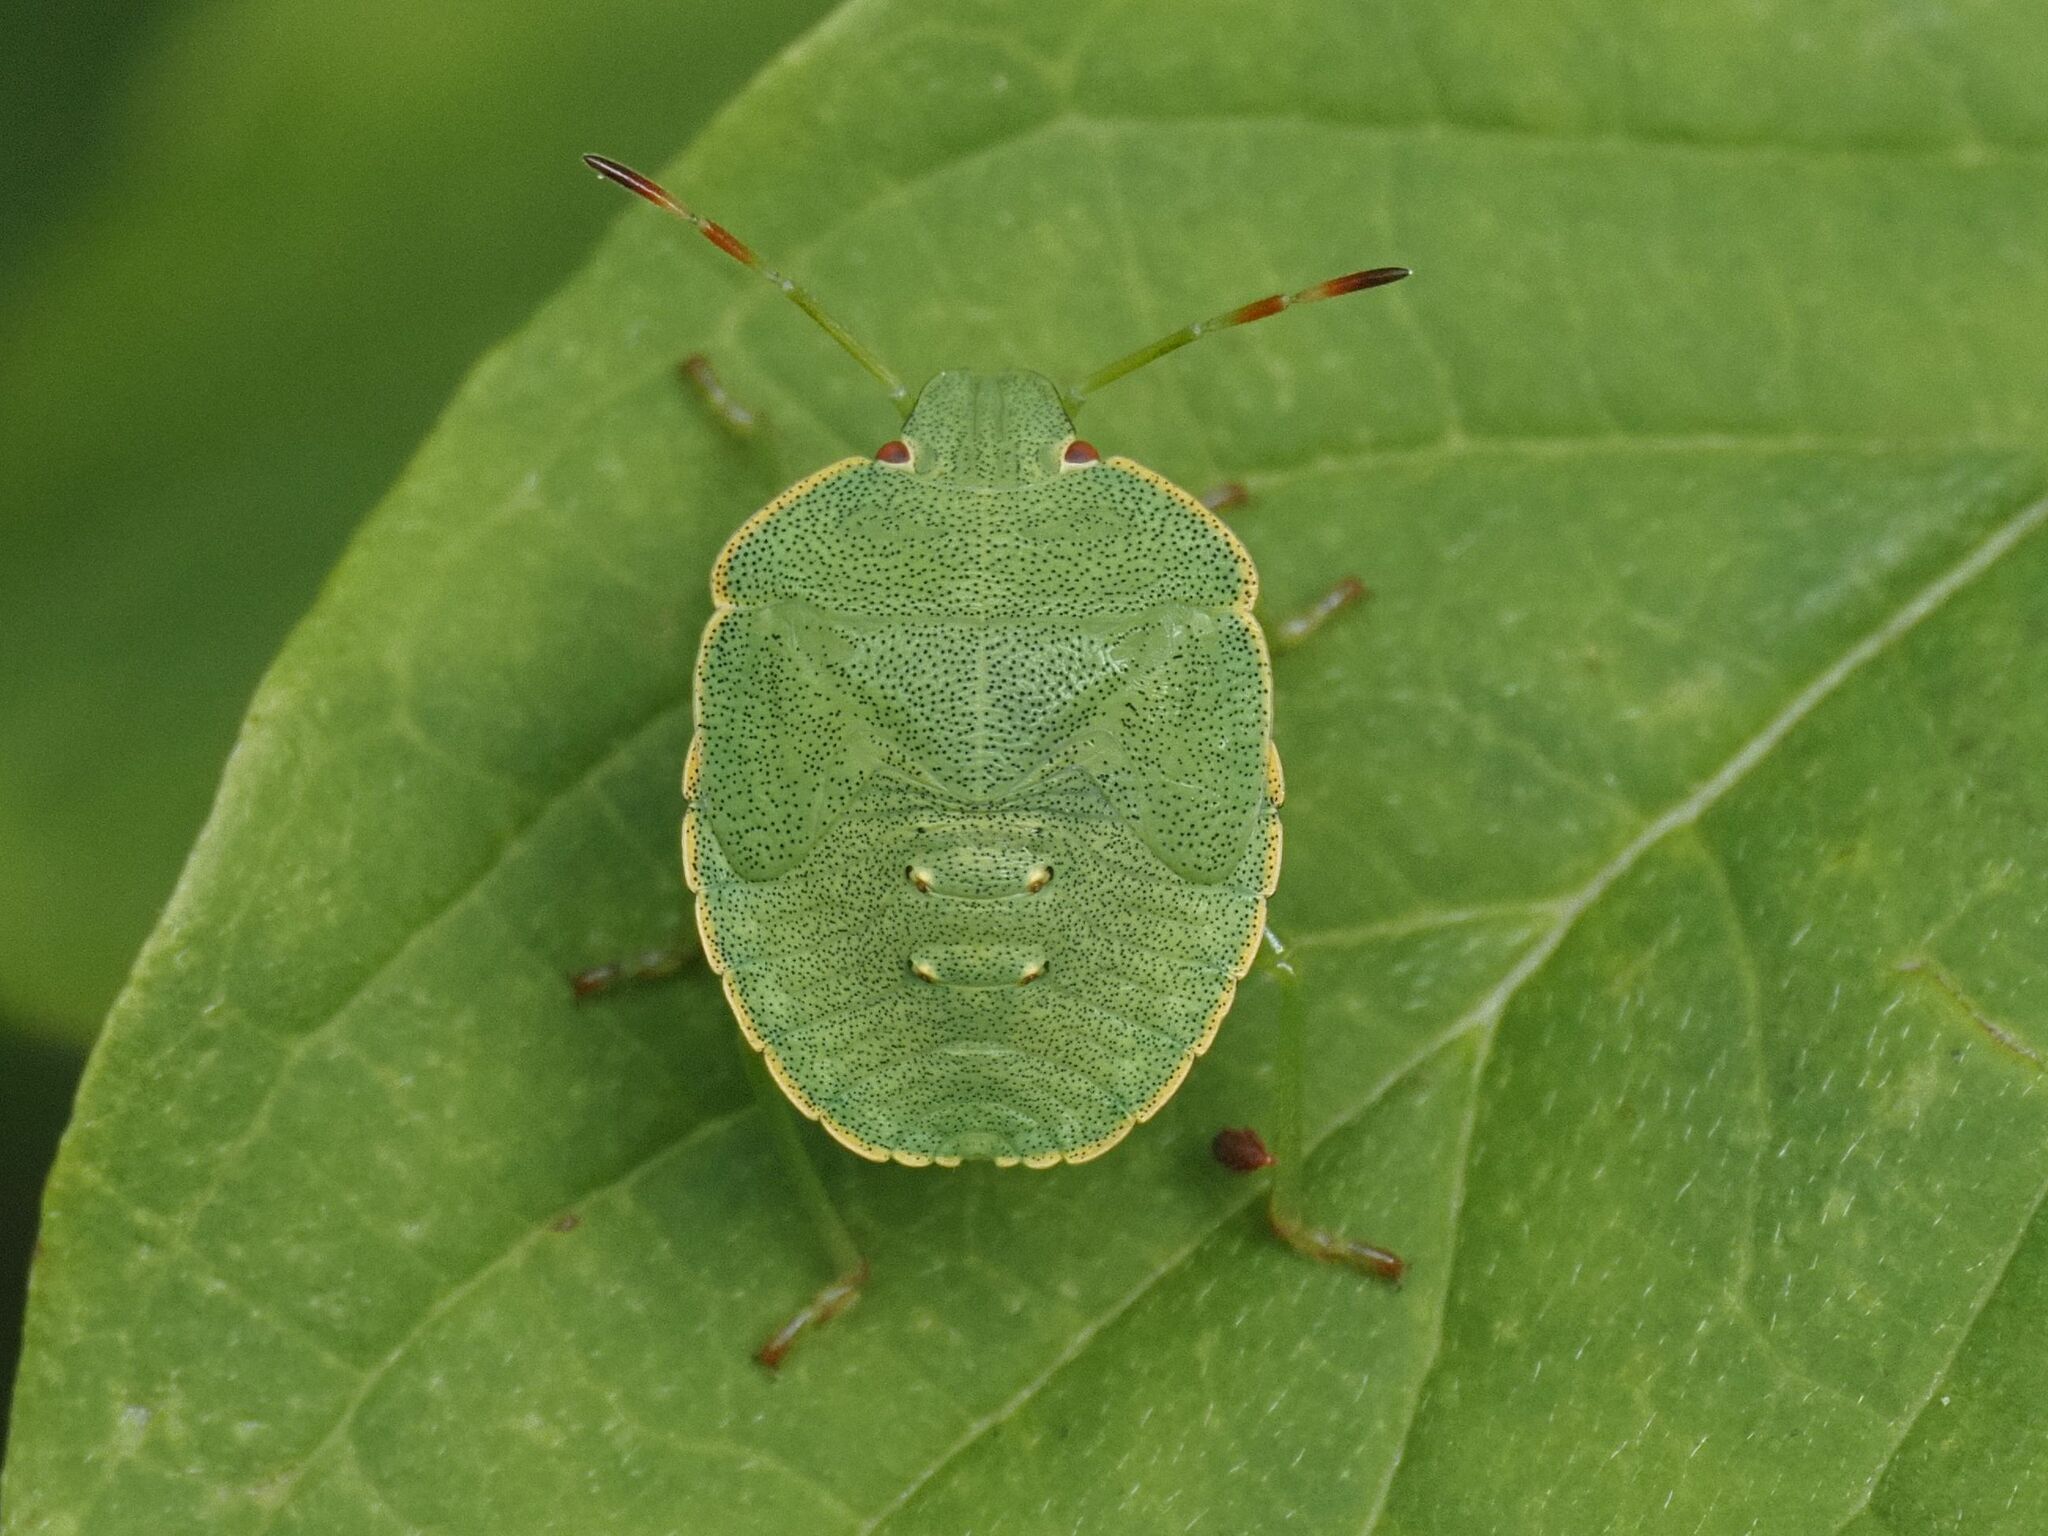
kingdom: Animalia
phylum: Arthropoda
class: Insecta
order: Hemiptera
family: Pentatomidae
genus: Palomena
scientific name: Palomena prasina
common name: Green shieldbug
